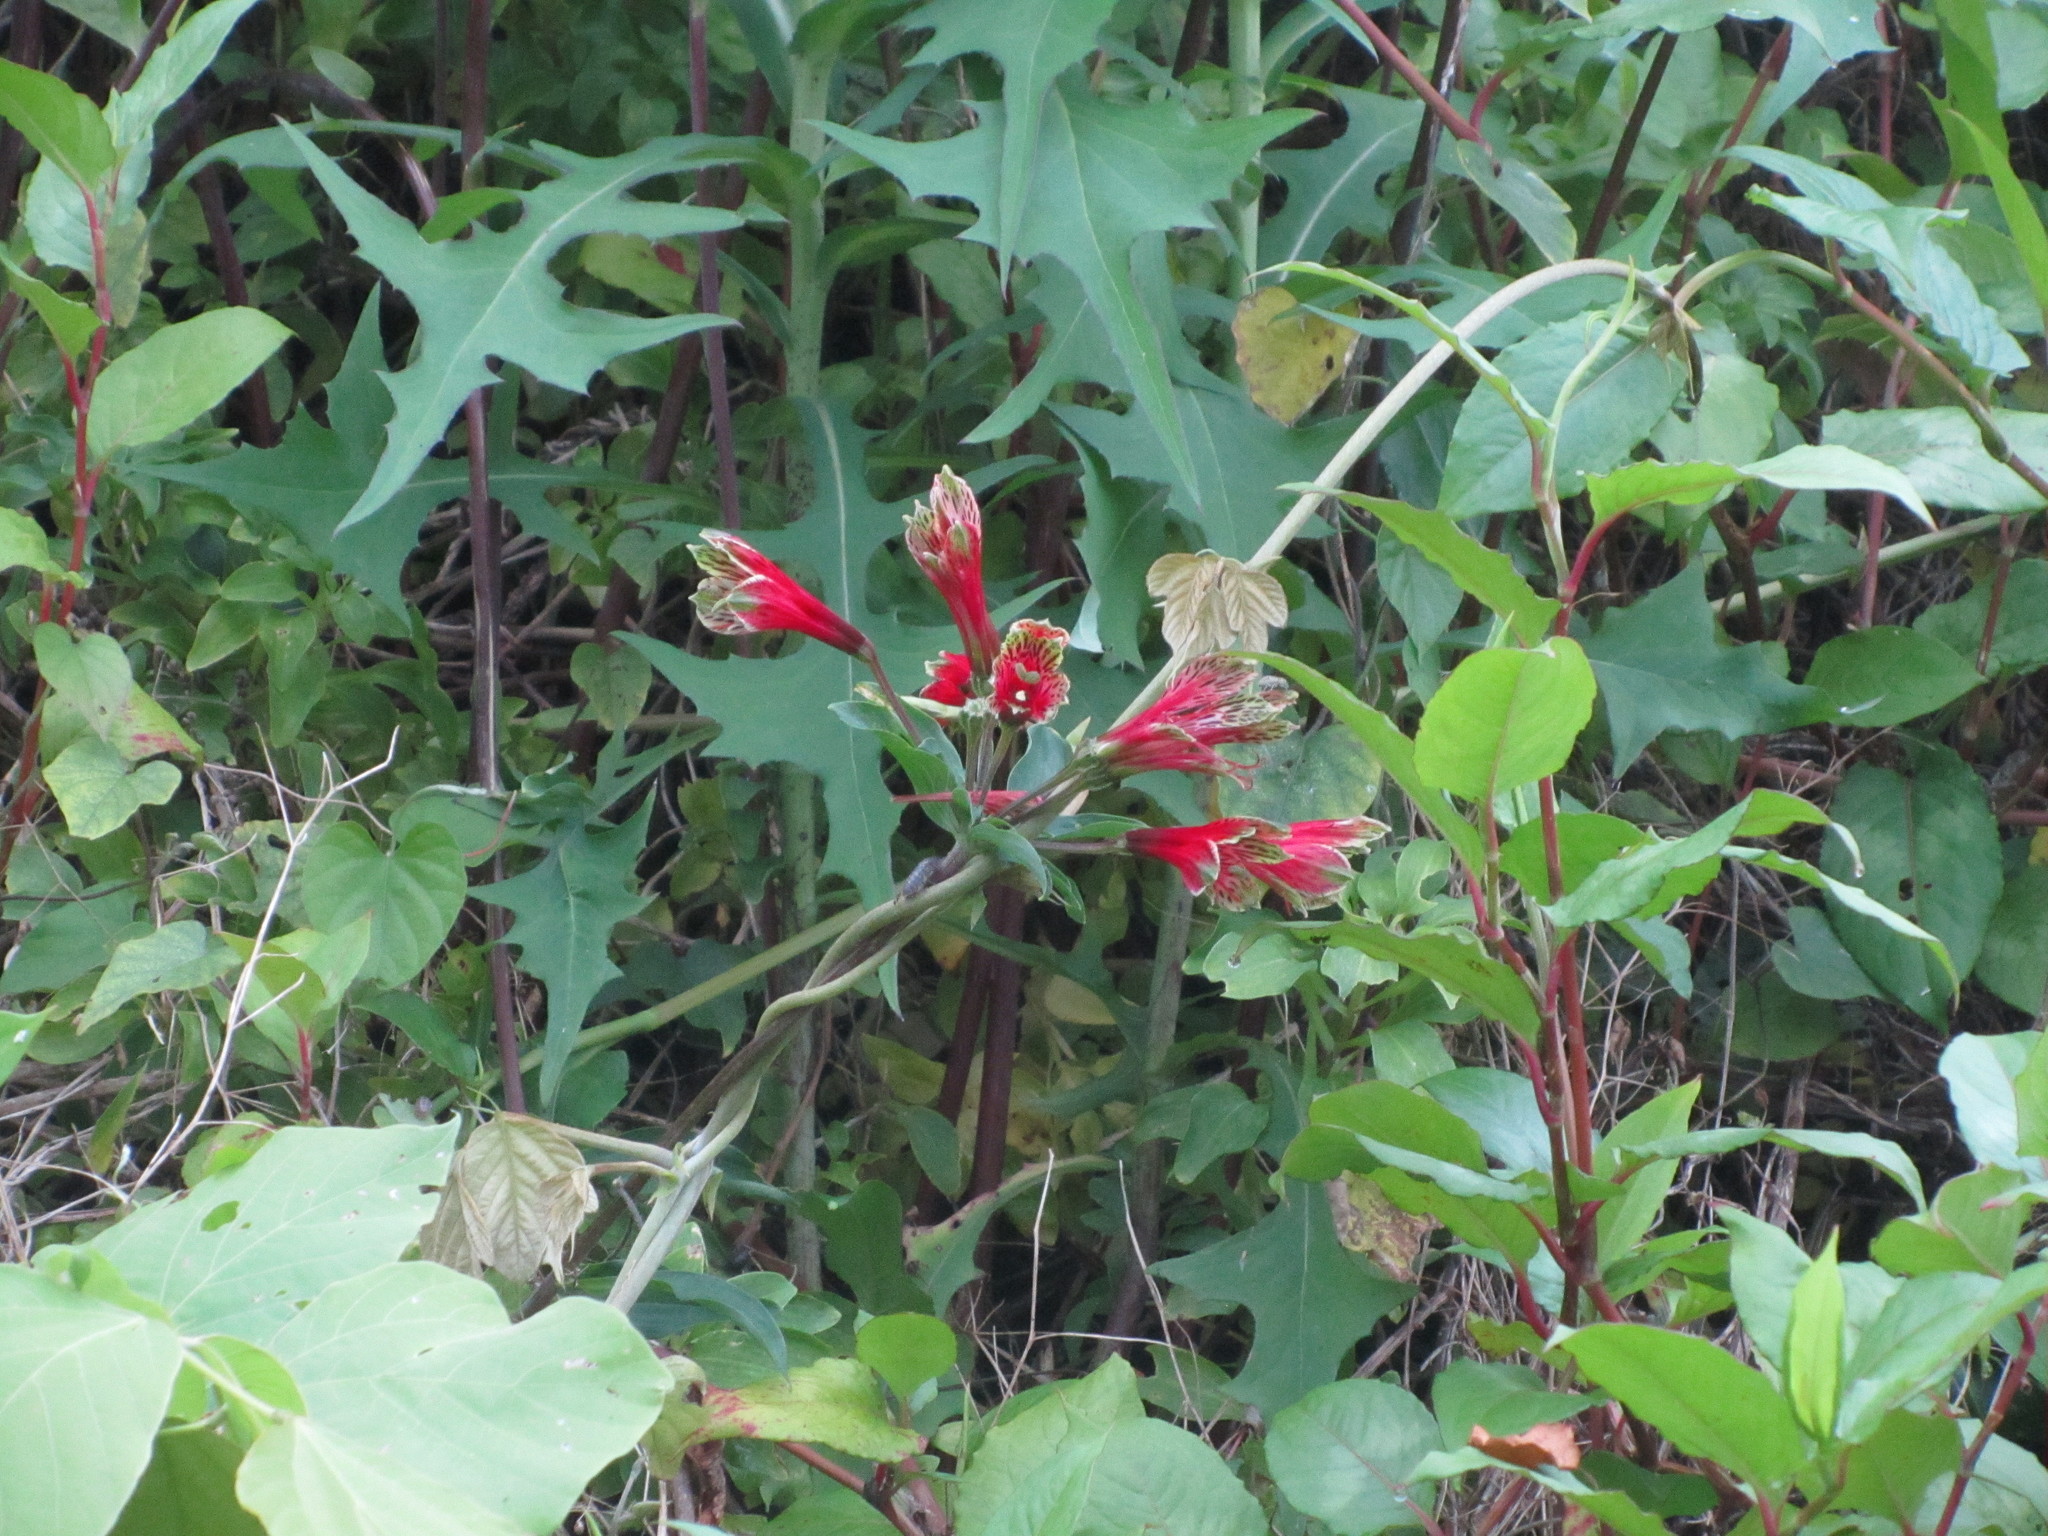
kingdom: Plantae
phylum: Tracheophyta
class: Liliopsida
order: Liliales
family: Alstroemeriaceae
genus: Alstroemeria
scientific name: Alstroemeria psittacina
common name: Peruvian-lily
